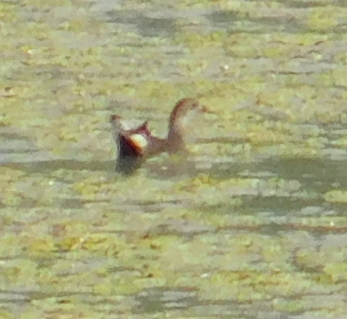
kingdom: Animalia
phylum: Chordata
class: Aves
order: Gruiformes
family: Rallidae
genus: Gallinula
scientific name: Gallinula chloropus
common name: Common moorhen
